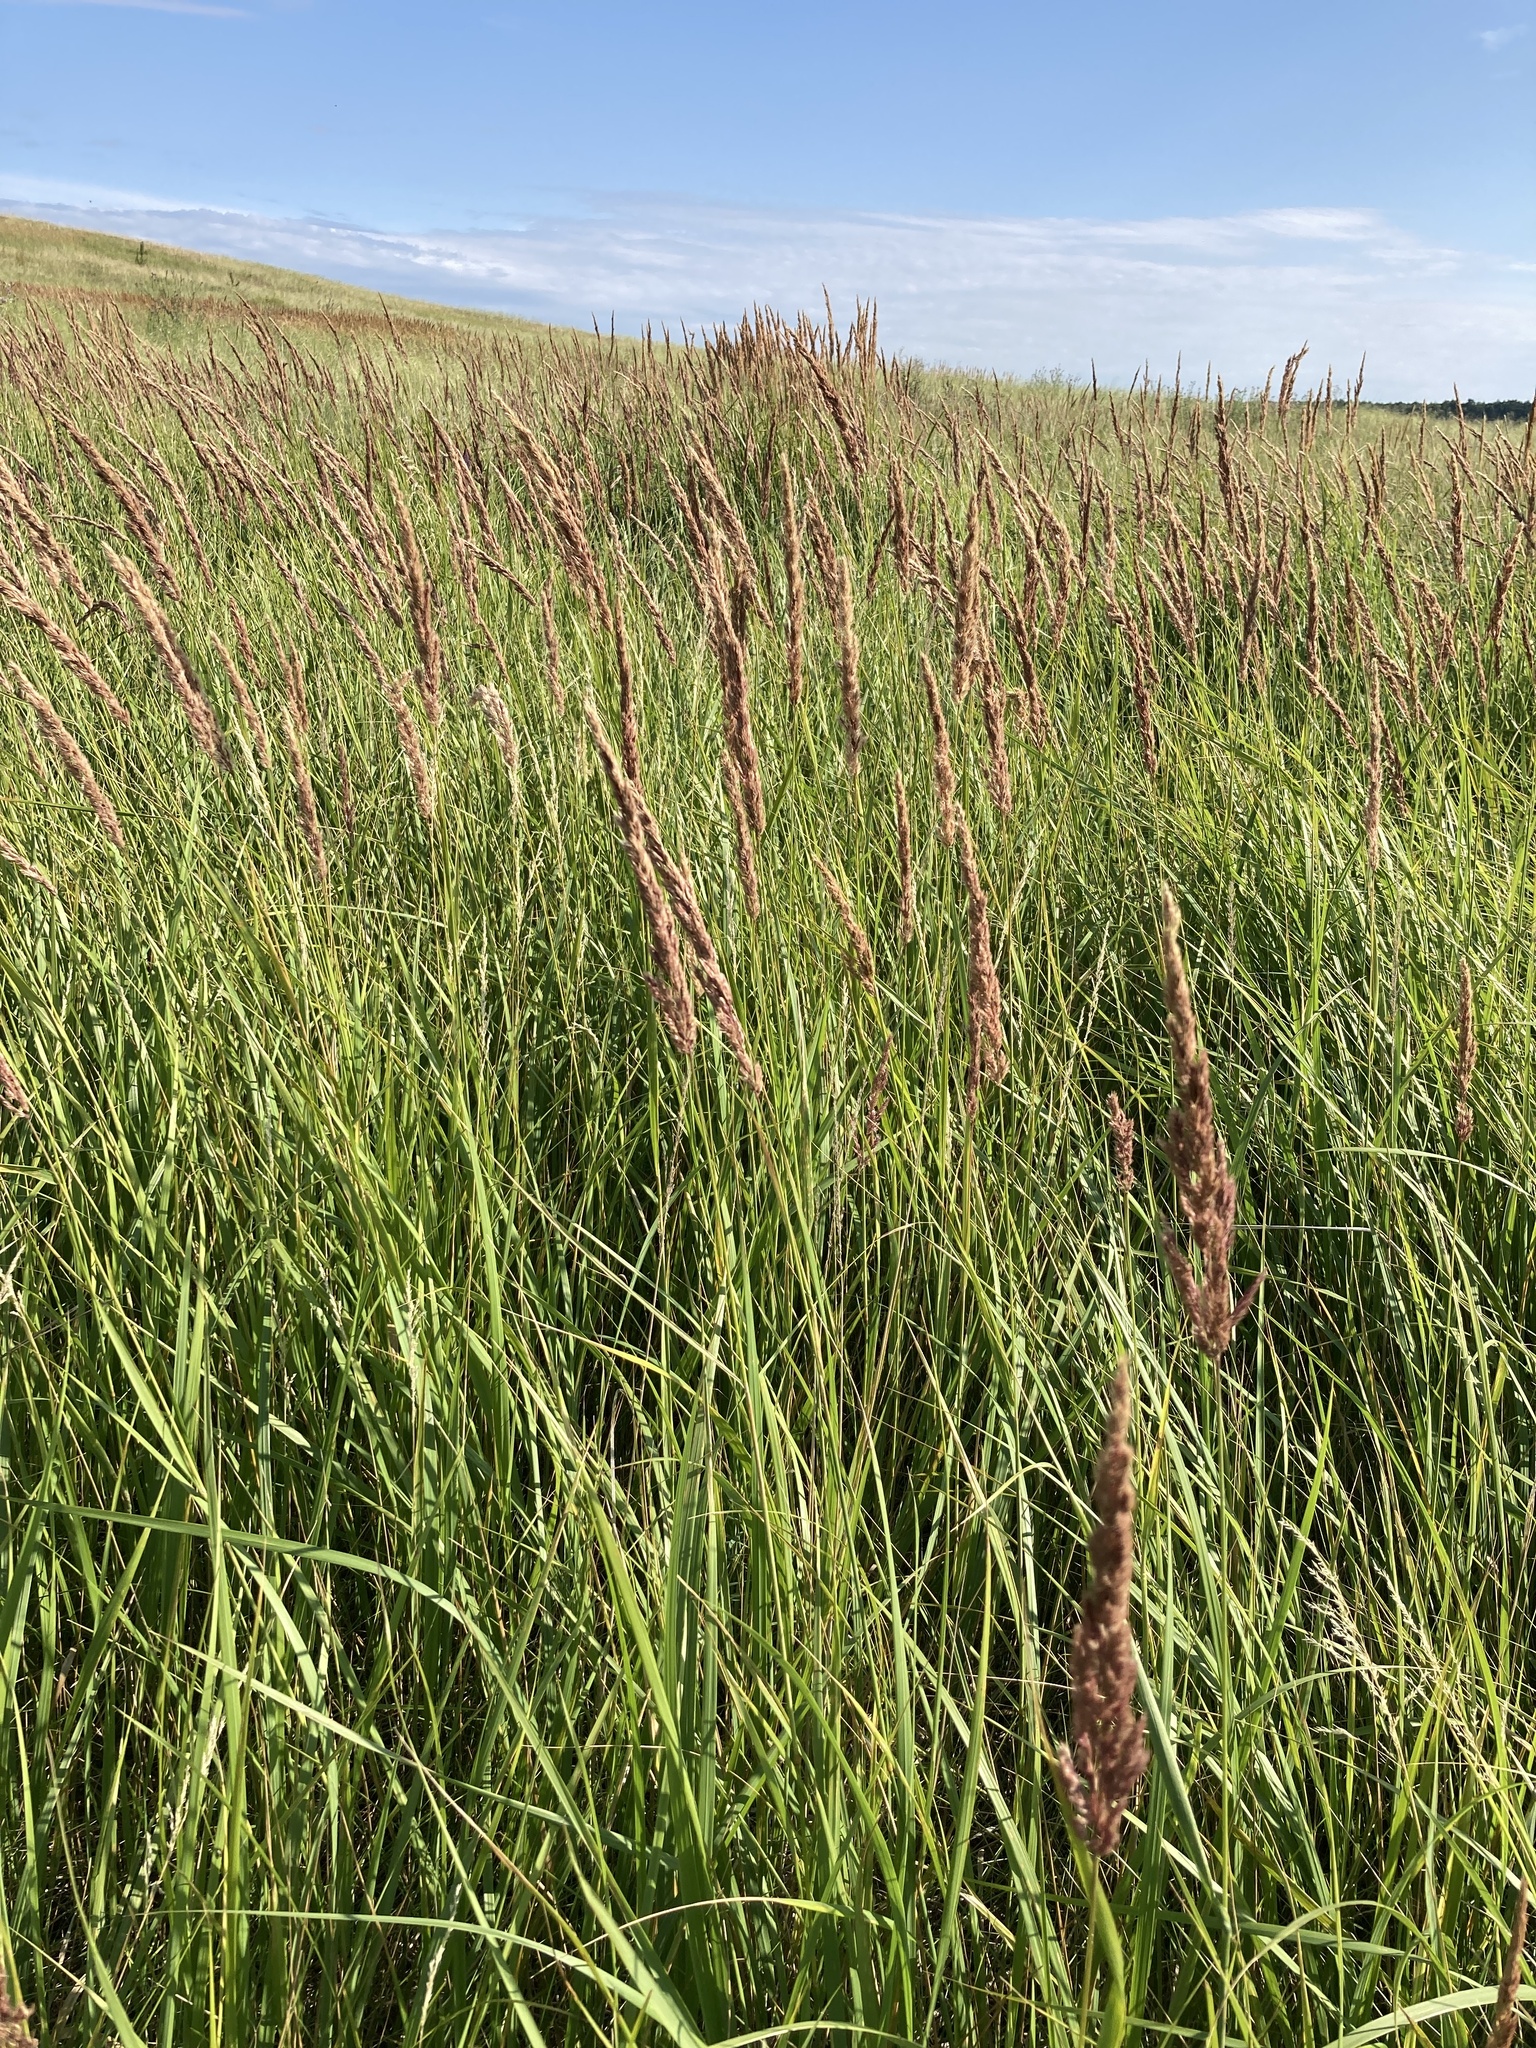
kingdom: Plantae
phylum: Tracheophyta
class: Liliopsida
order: Poales
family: Poaceae
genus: Calamagrostis
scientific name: Calamagrostis epigejos
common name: Wood small-reed
